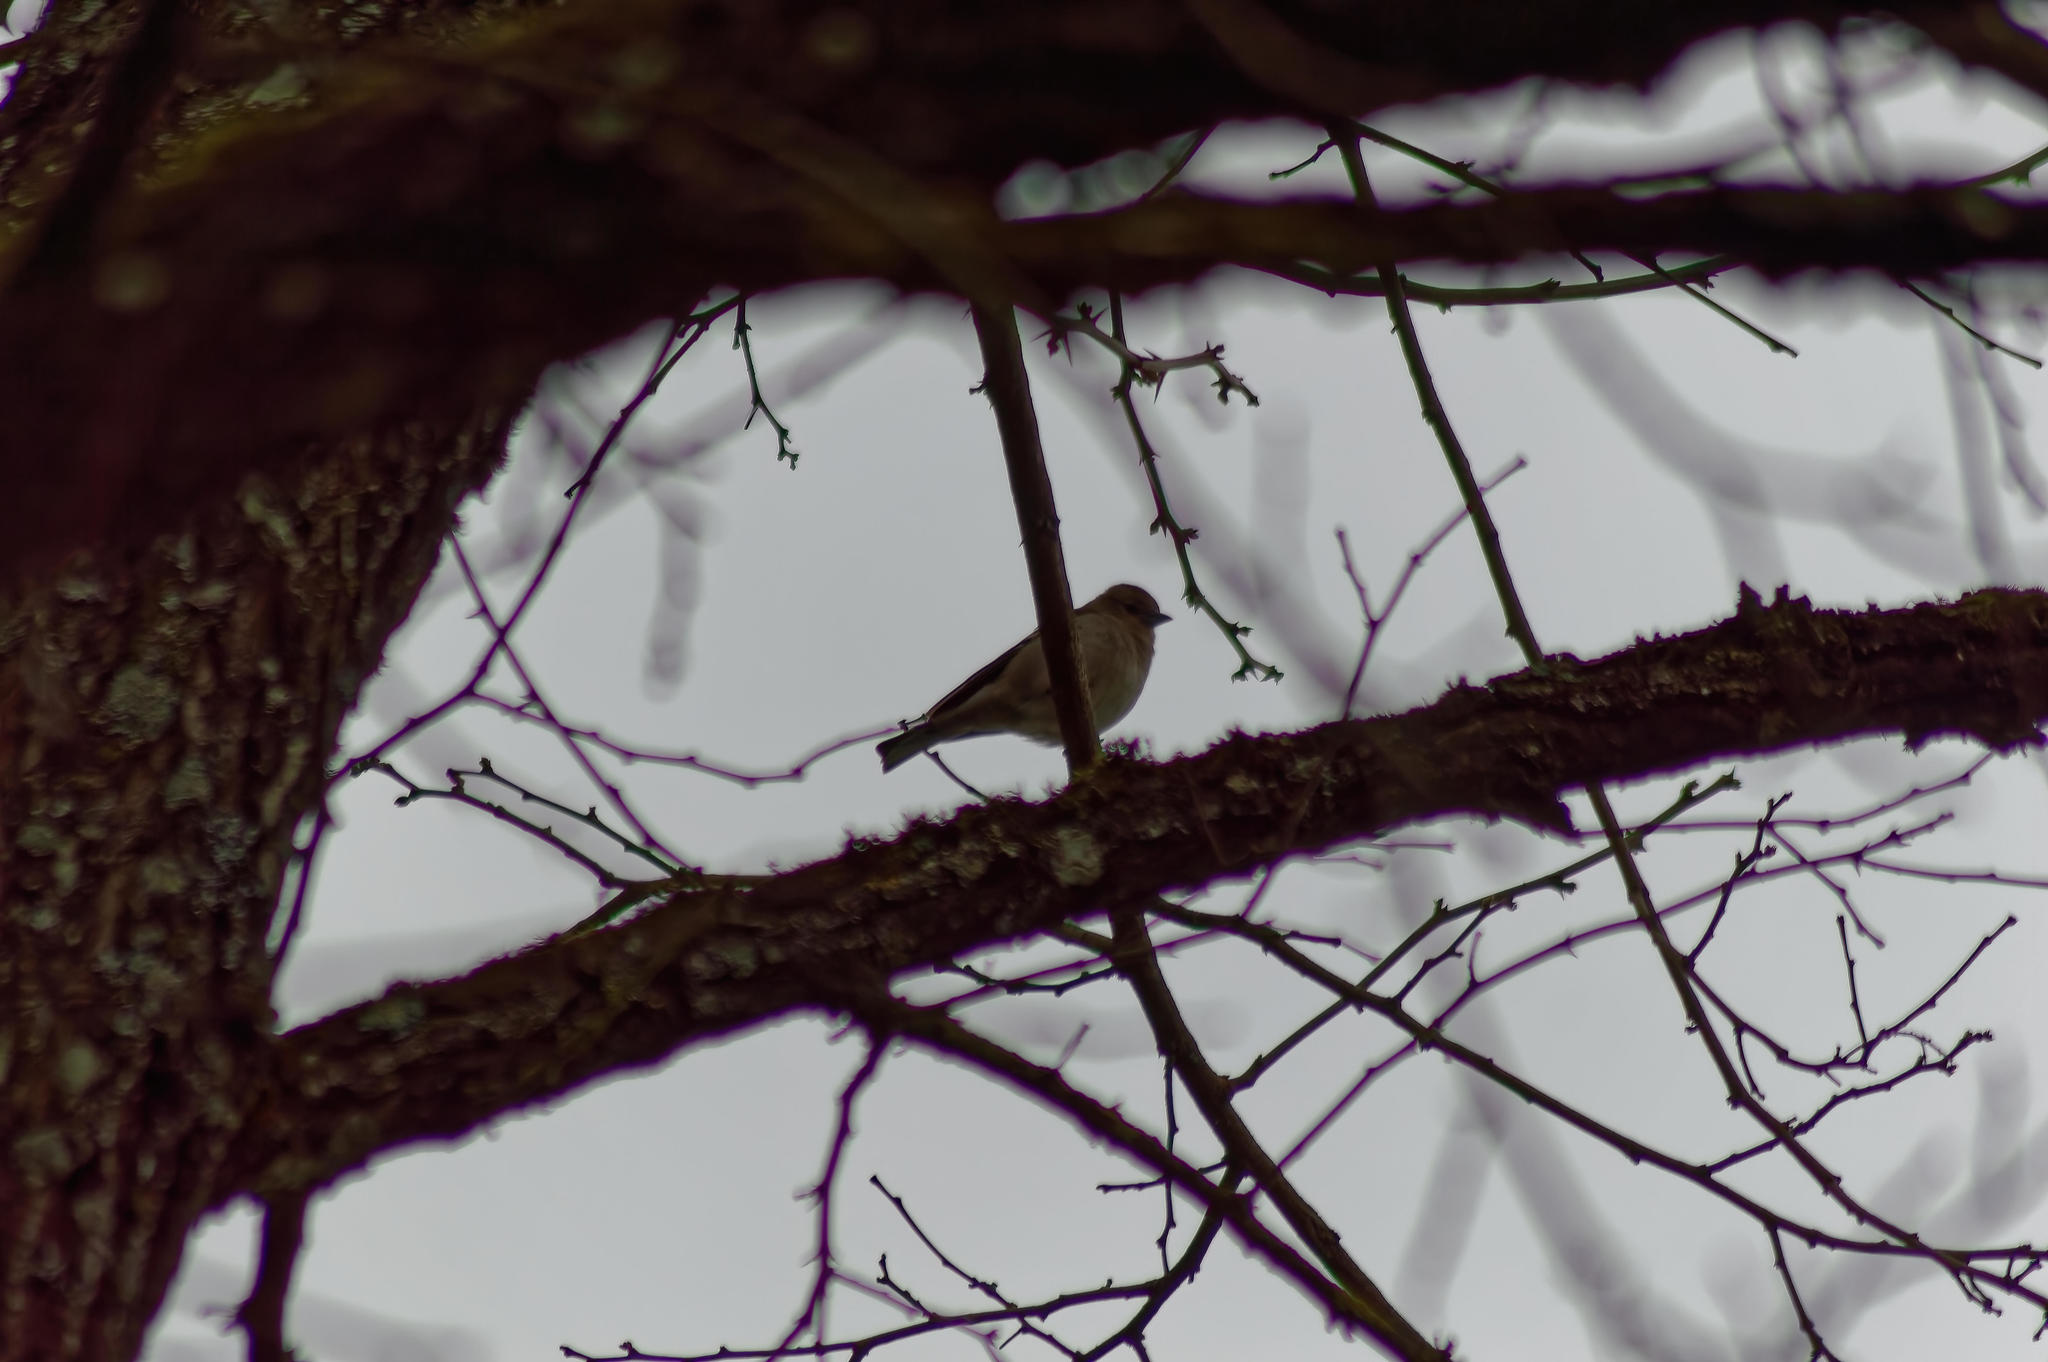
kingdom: Animalia
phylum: Chordata
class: Aves
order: Passeriformes
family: Fringillidae
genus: Fringilla
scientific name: Fringilla coelebs
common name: Common chaffinch
